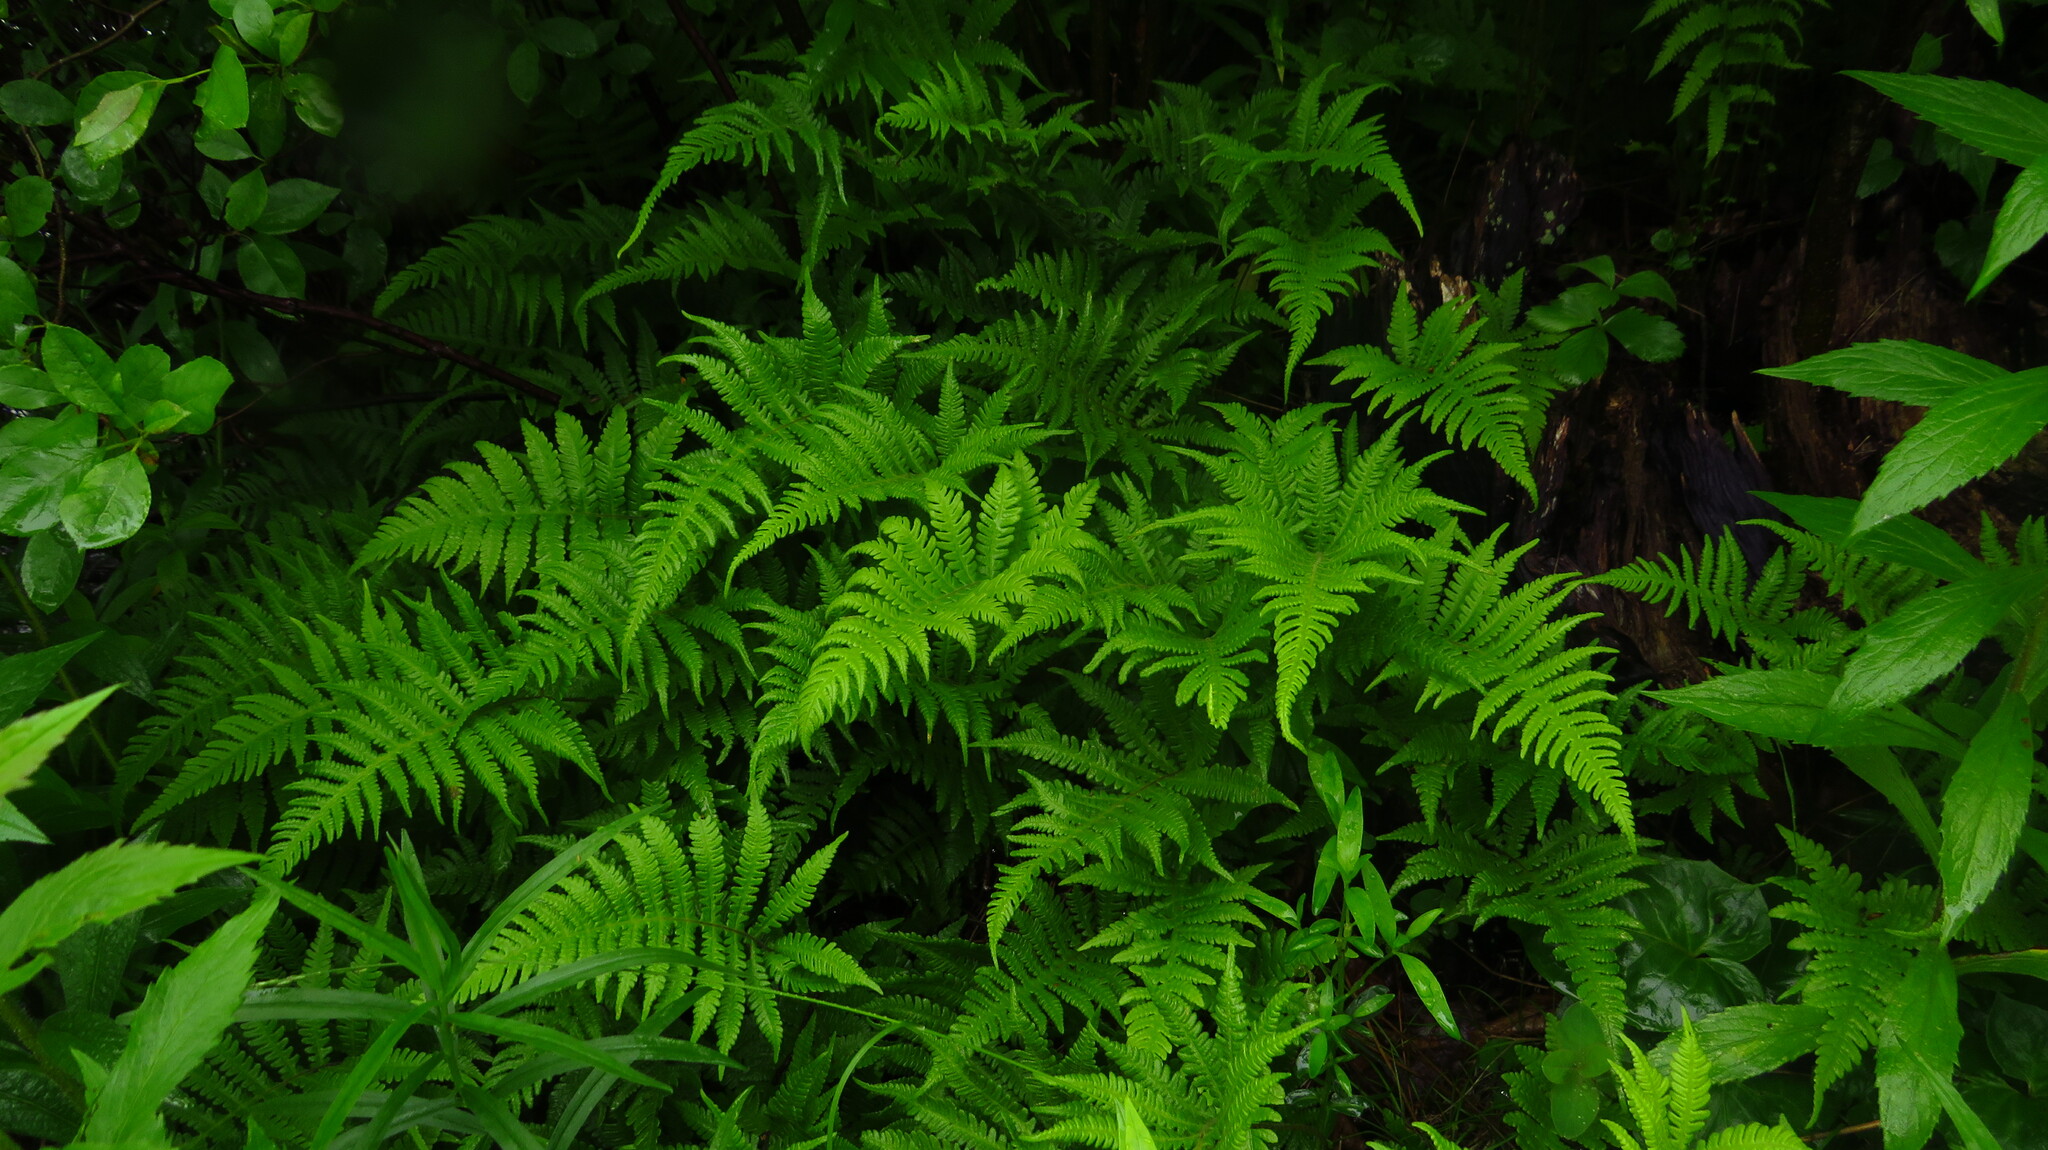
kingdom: Plantae
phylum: Tracheophyta
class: Polypodiopsida
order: Polypodiales
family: Thelypteridaceae
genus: Phegopteris
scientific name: Phegopteris connectilis
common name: Beech fern
